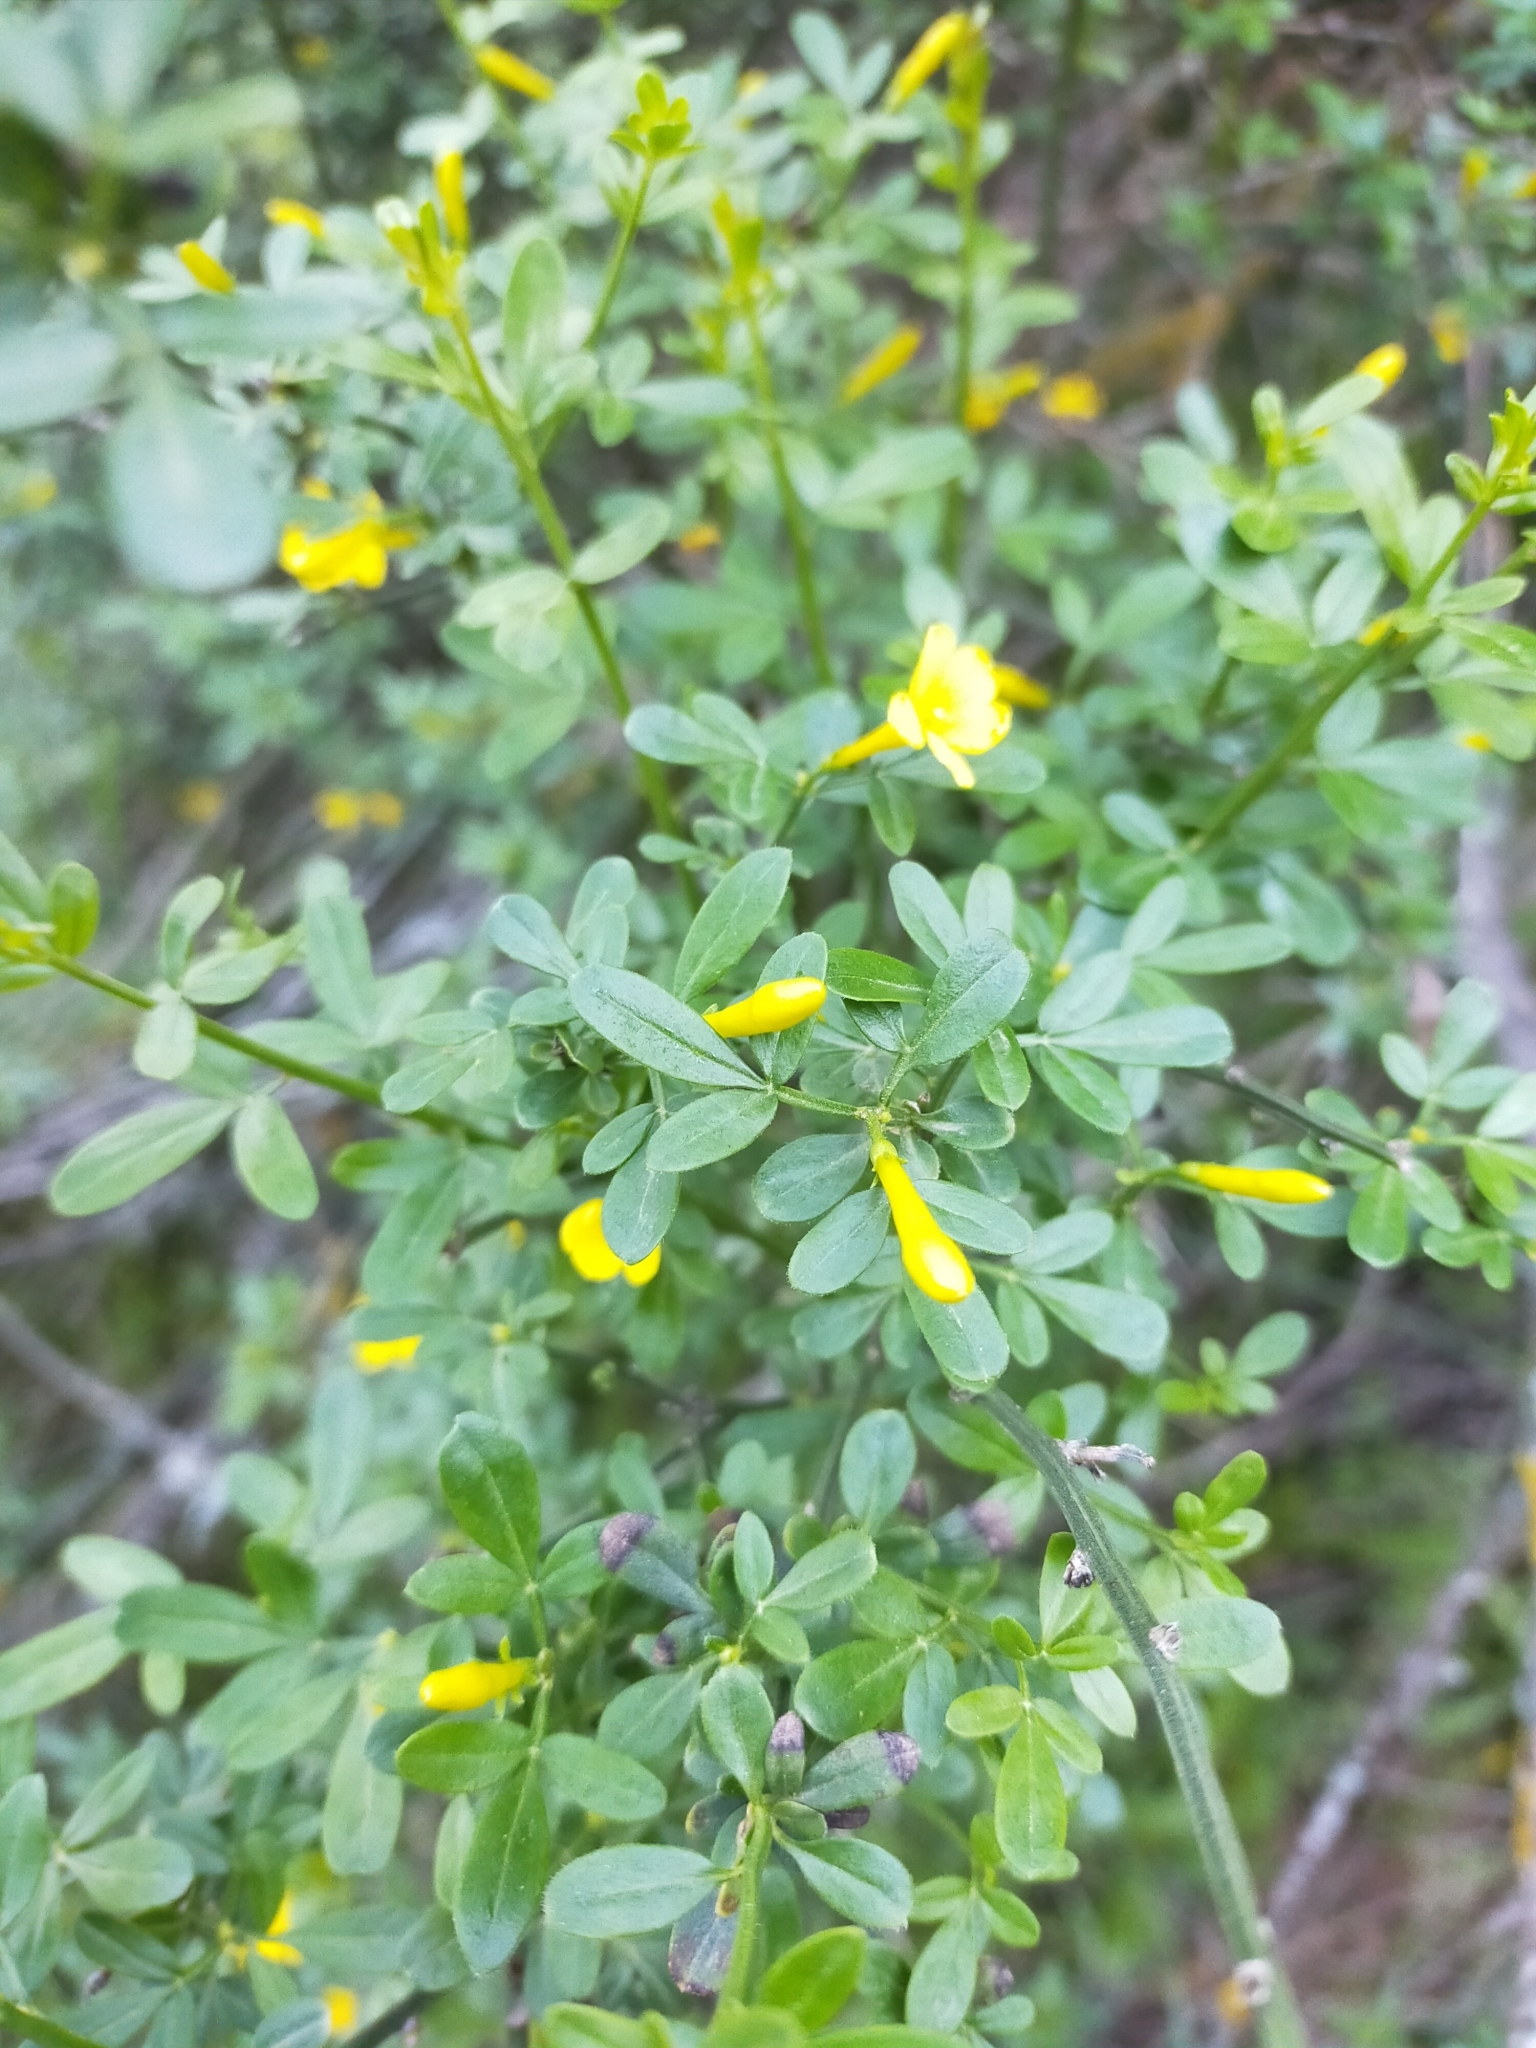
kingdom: Plantae
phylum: Tracheophyta
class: Magnoliopsida
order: Lamiales
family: Oleaceae
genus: Chrysojasminum
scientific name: Chrysojasminum fruticans
